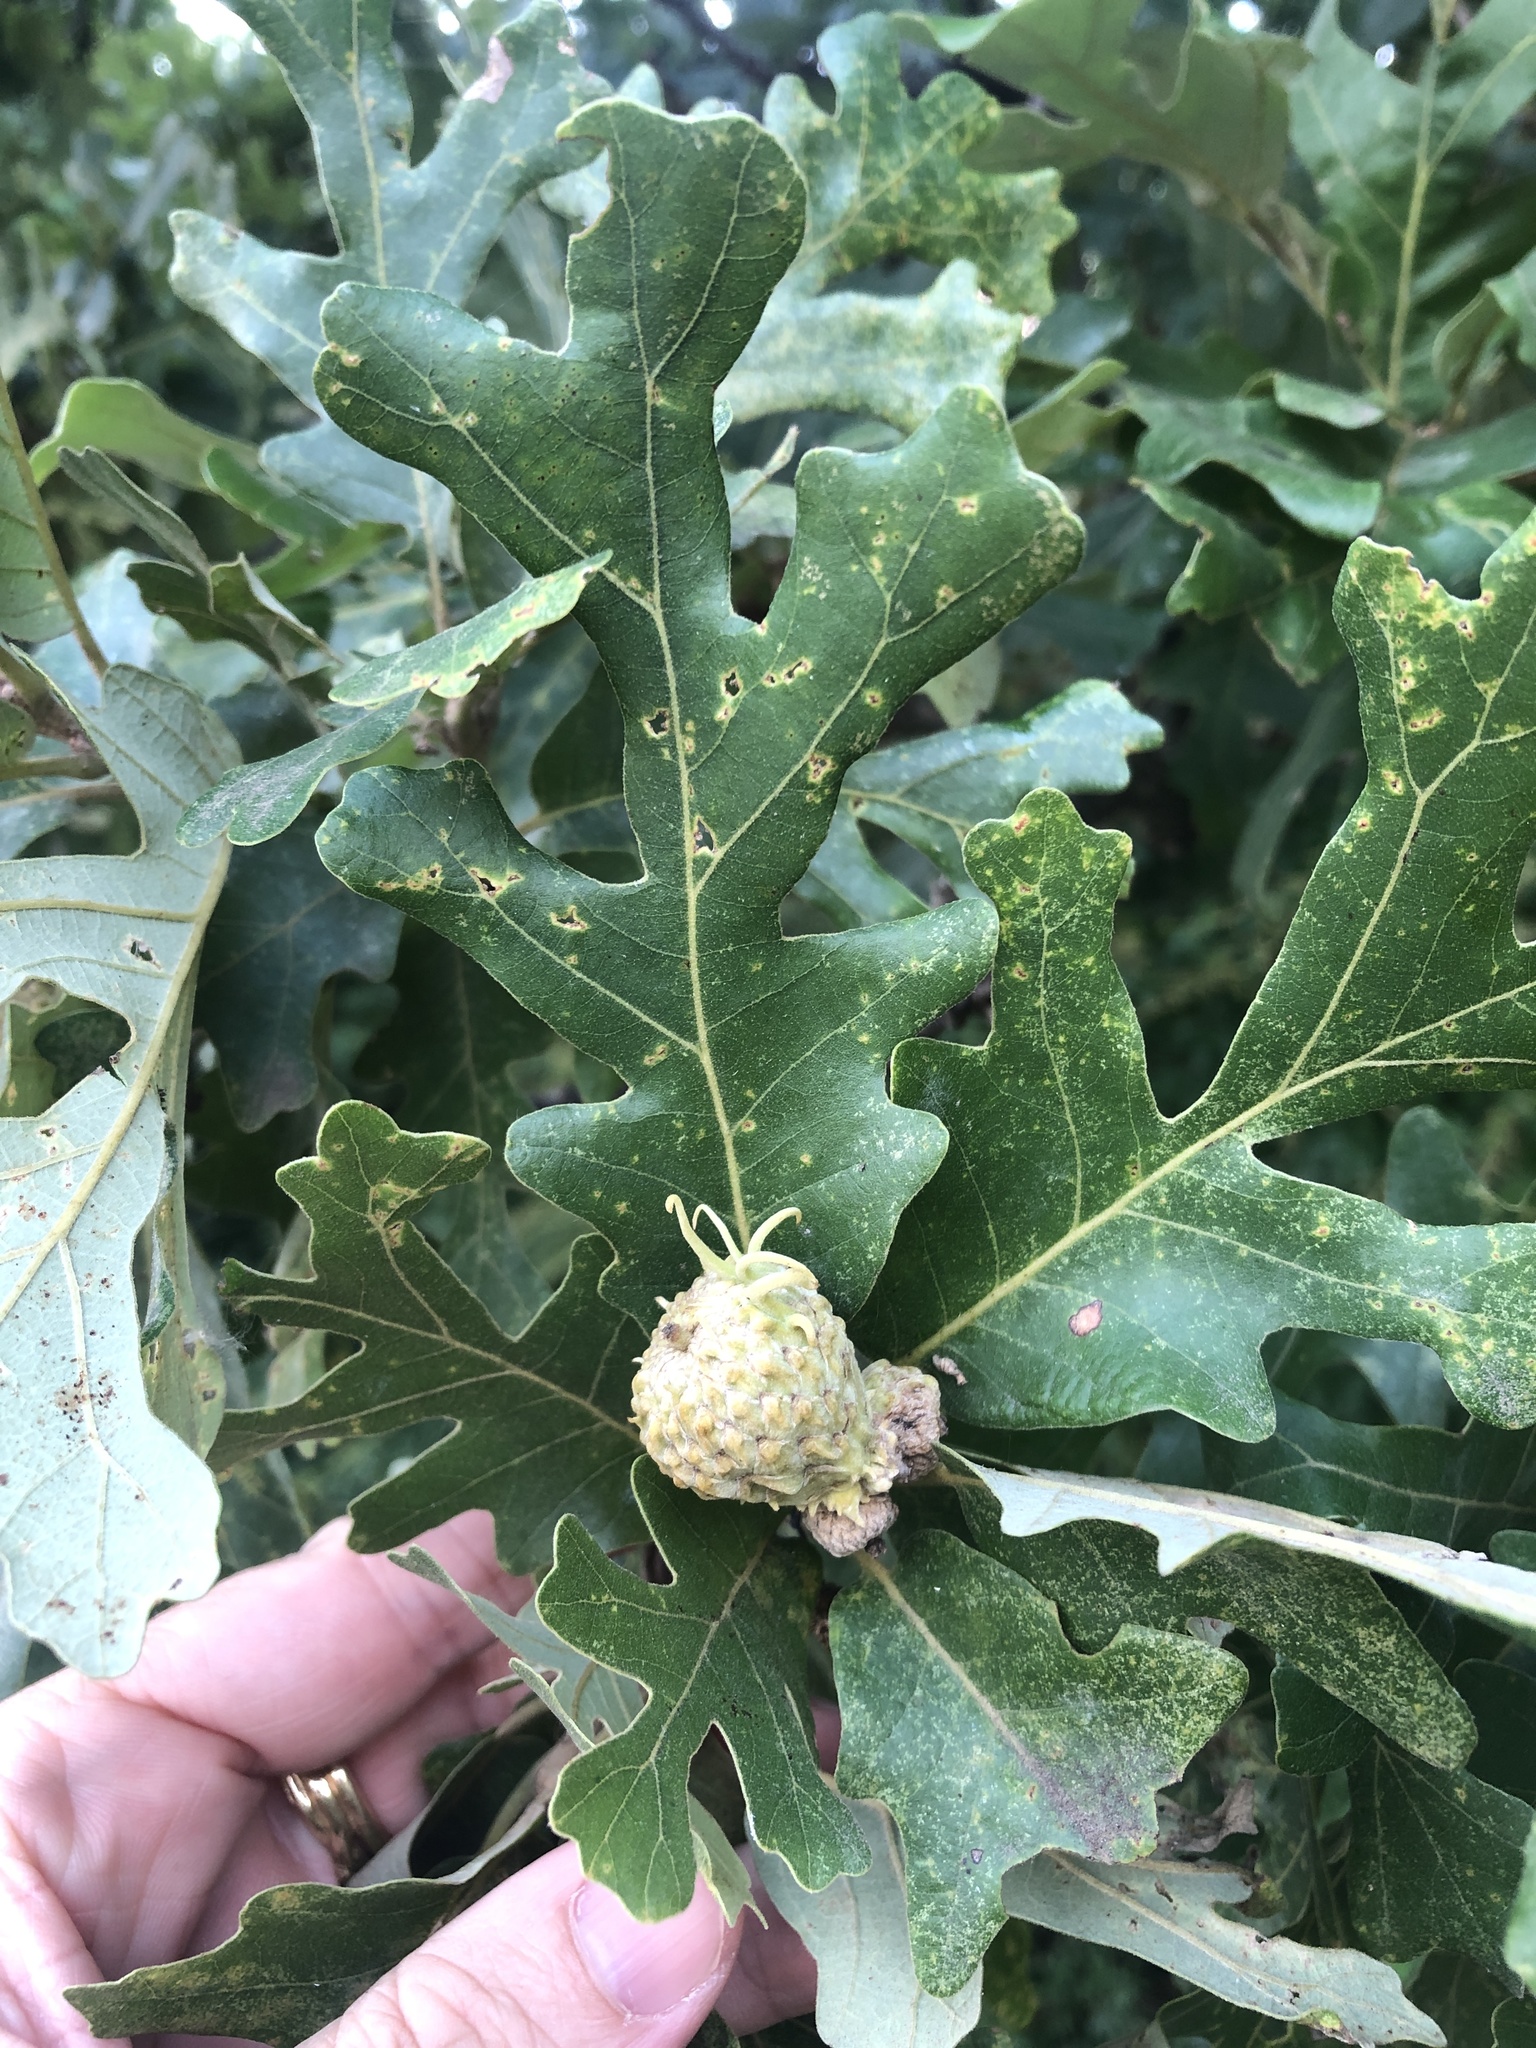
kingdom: Plantae
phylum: Tracheophyta
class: Magnoliopsida
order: Fagales
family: Fagaceae
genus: Quercus
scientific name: Quercus macrocarpa
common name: Bur oak
